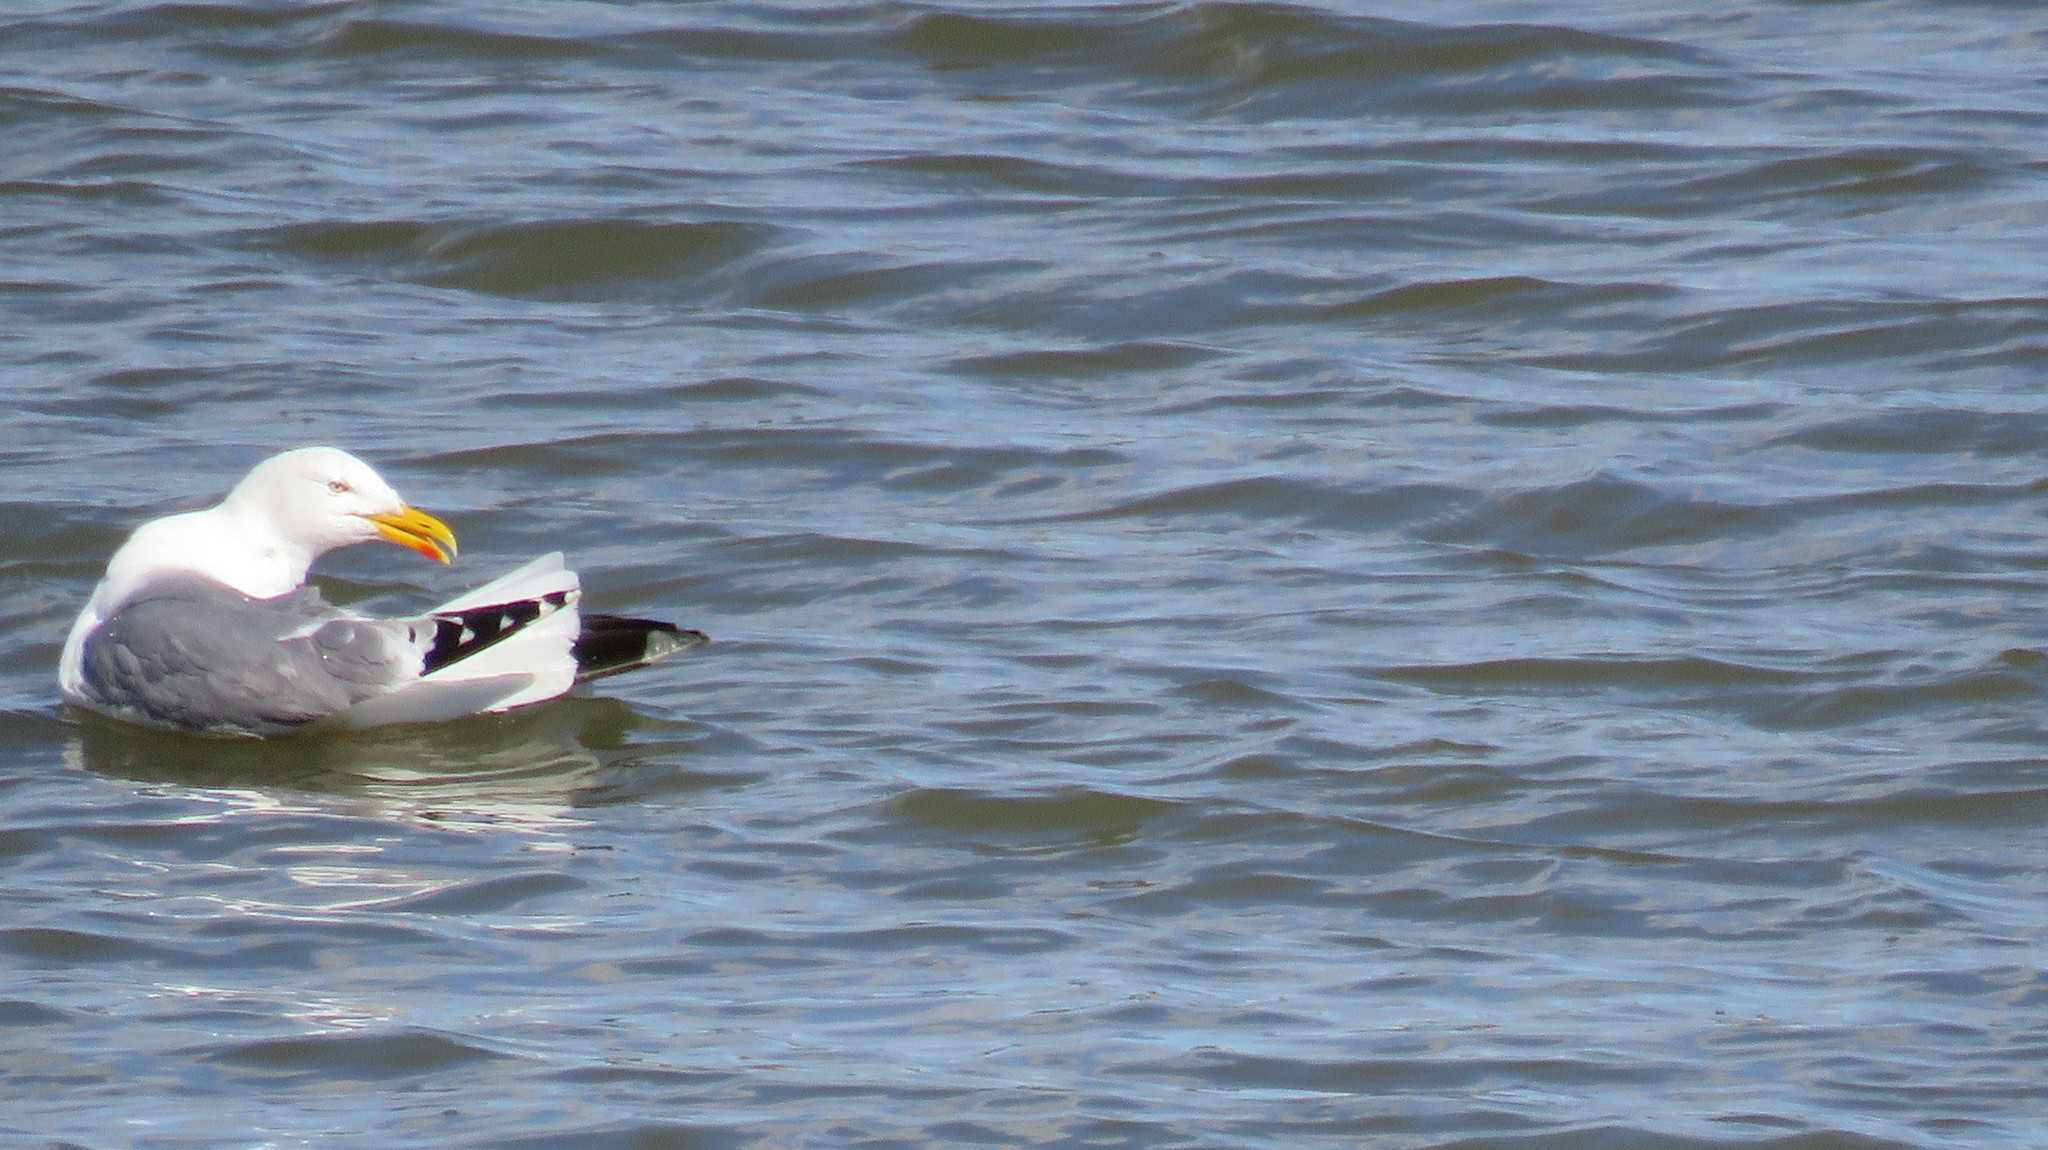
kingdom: Animalia
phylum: Chordata
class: Aves
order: Charadriiformes
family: Laridae
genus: Larus
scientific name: Larus argentatus
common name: Herring gull
